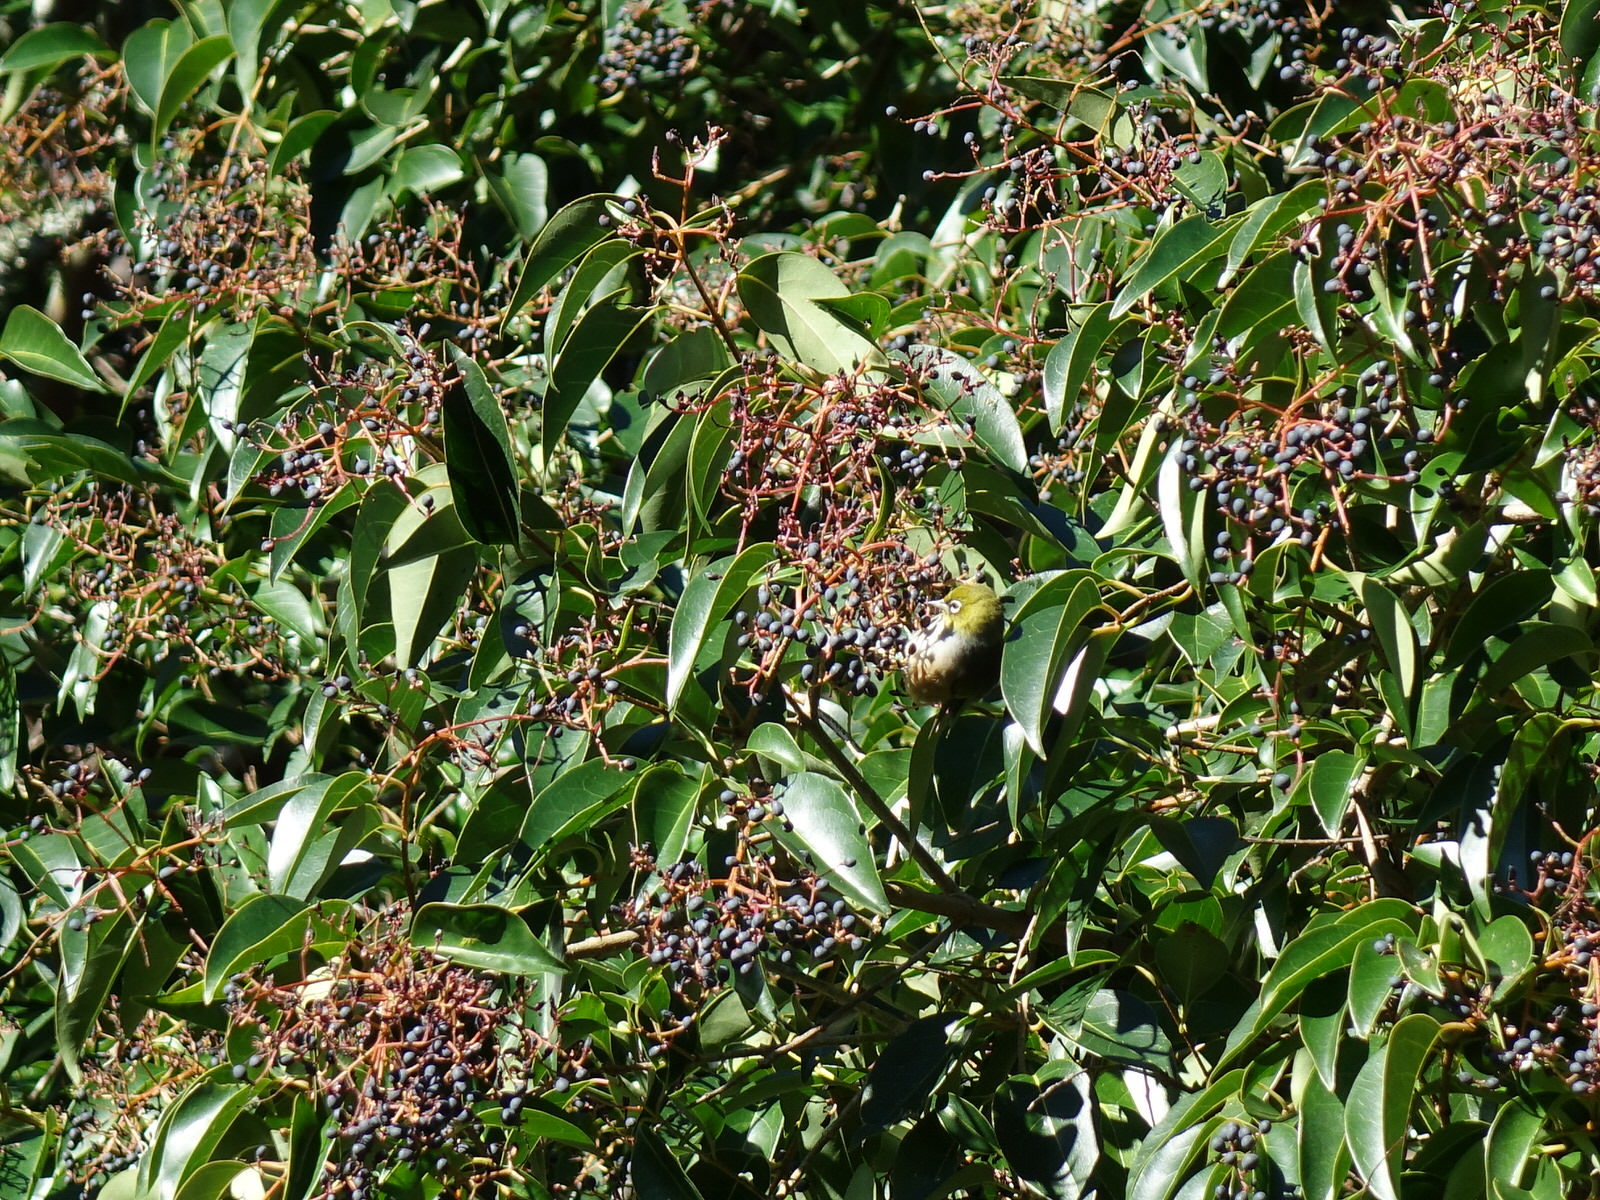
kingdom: Animalia
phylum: Chordata
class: Aves
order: Passeriformes
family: Zosteropidae
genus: Zosterops
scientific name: Zosterops lateralis
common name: Silvereye
